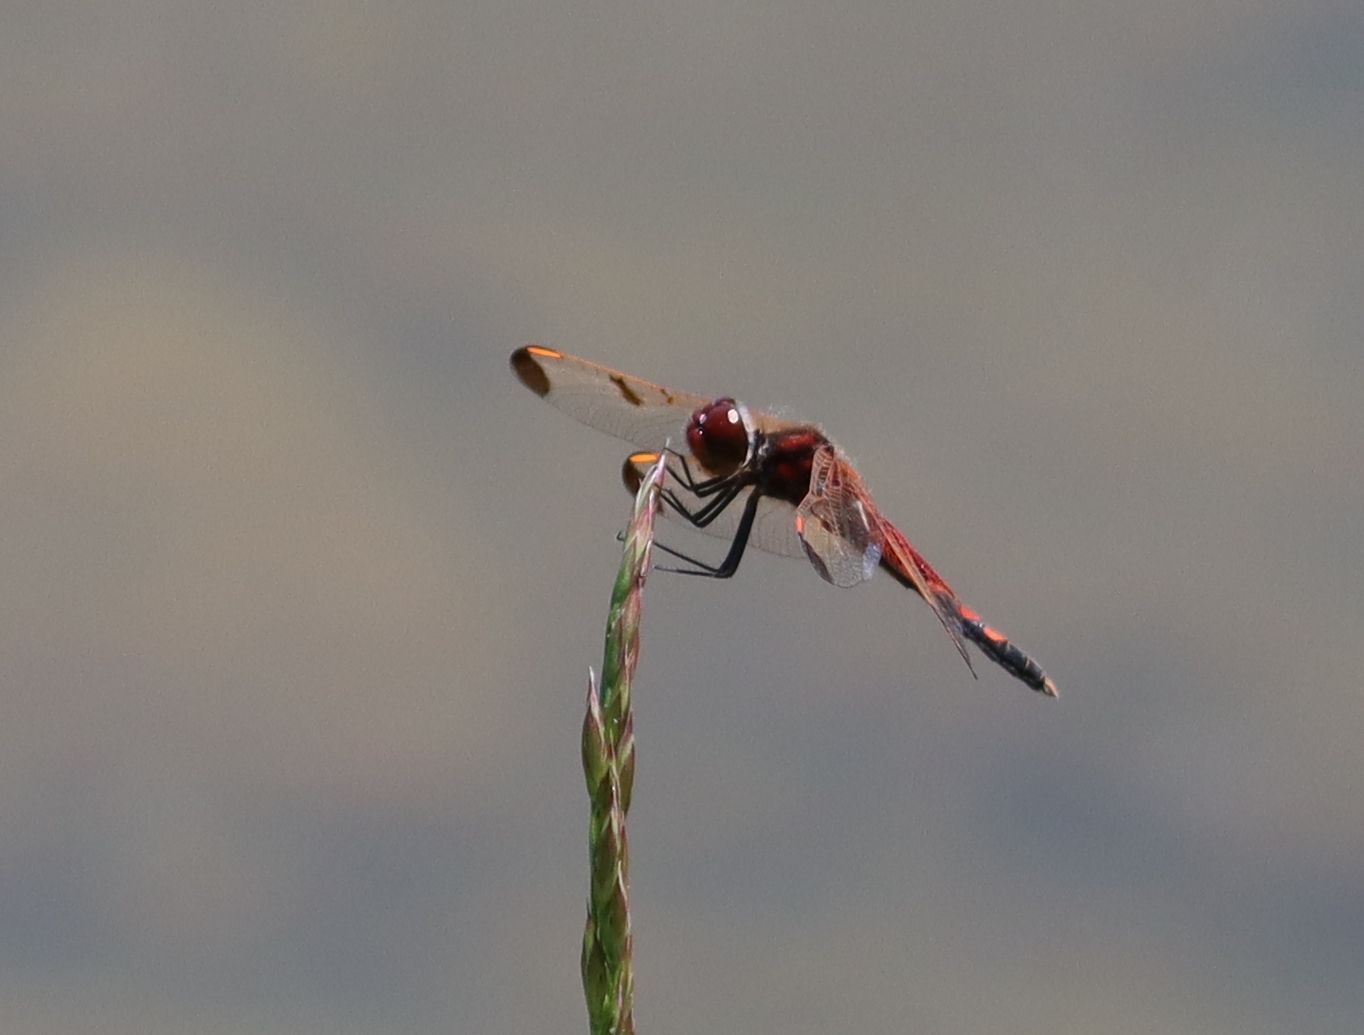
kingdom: Animalia
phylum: Arthropoda
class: Insecta
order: Odonata
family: Libellulidae
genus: Celithemis
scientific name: Celithemis elisa
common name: Calico pennant
